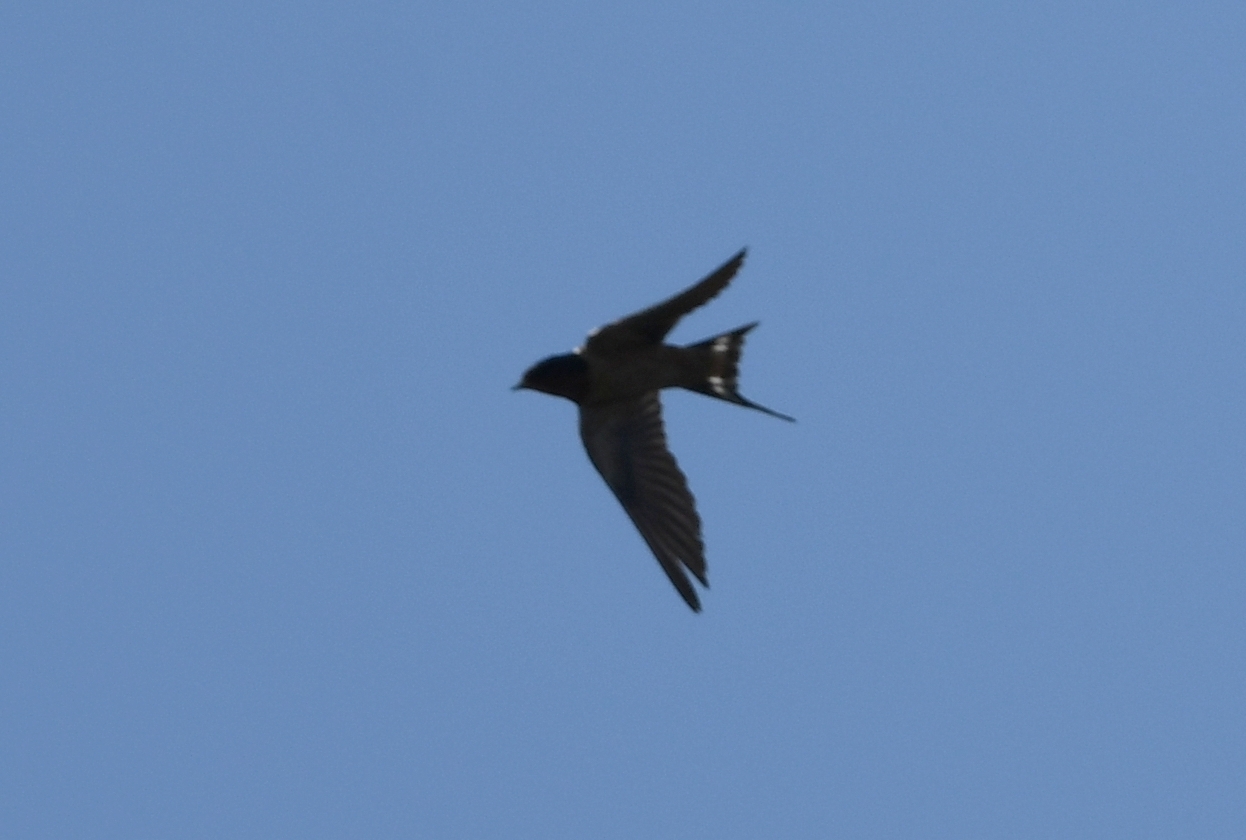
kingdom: Animalia
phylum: Chordata
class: Aves
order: Passeriformes
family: Hirundinidae
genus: Hirundo
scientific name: Hirundo rustica
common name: Barn swallow
